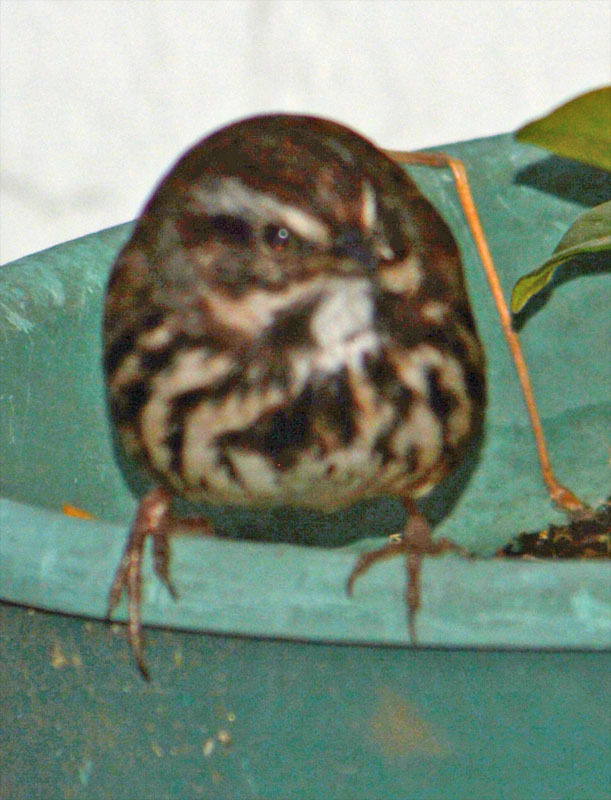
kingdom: Animalia
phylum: Chordata
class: Aves
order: Passeriformes
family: Passerellidae
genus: Melospiza
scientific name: Melospiza melodia
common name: Song sparrow
